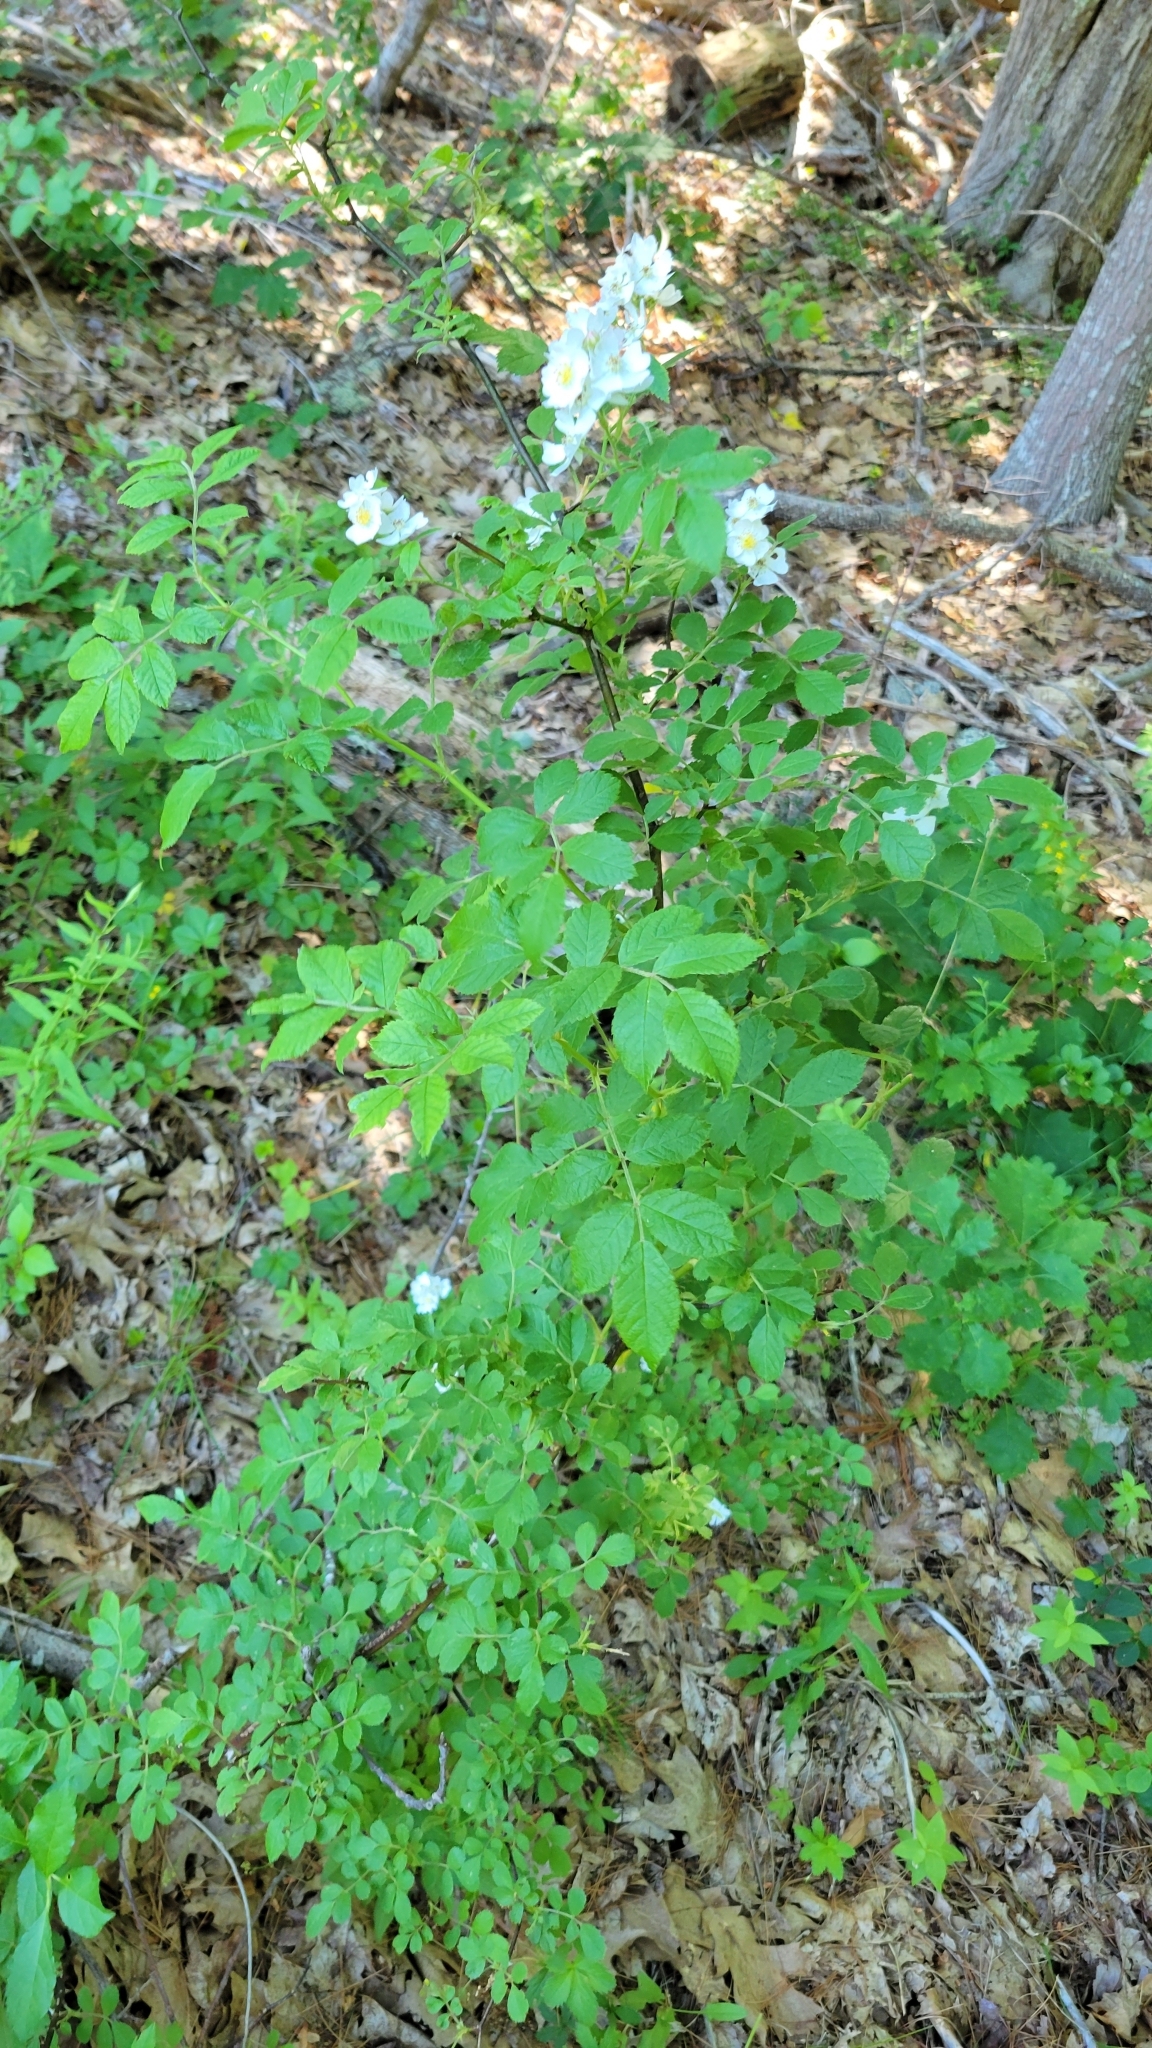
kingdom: Plantae
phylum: Tracheophyta
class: Magnoliopsida
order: Rosales
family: Rosaceae
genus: Rosa
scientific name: Rosa multiflora
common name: Multiflora rose
